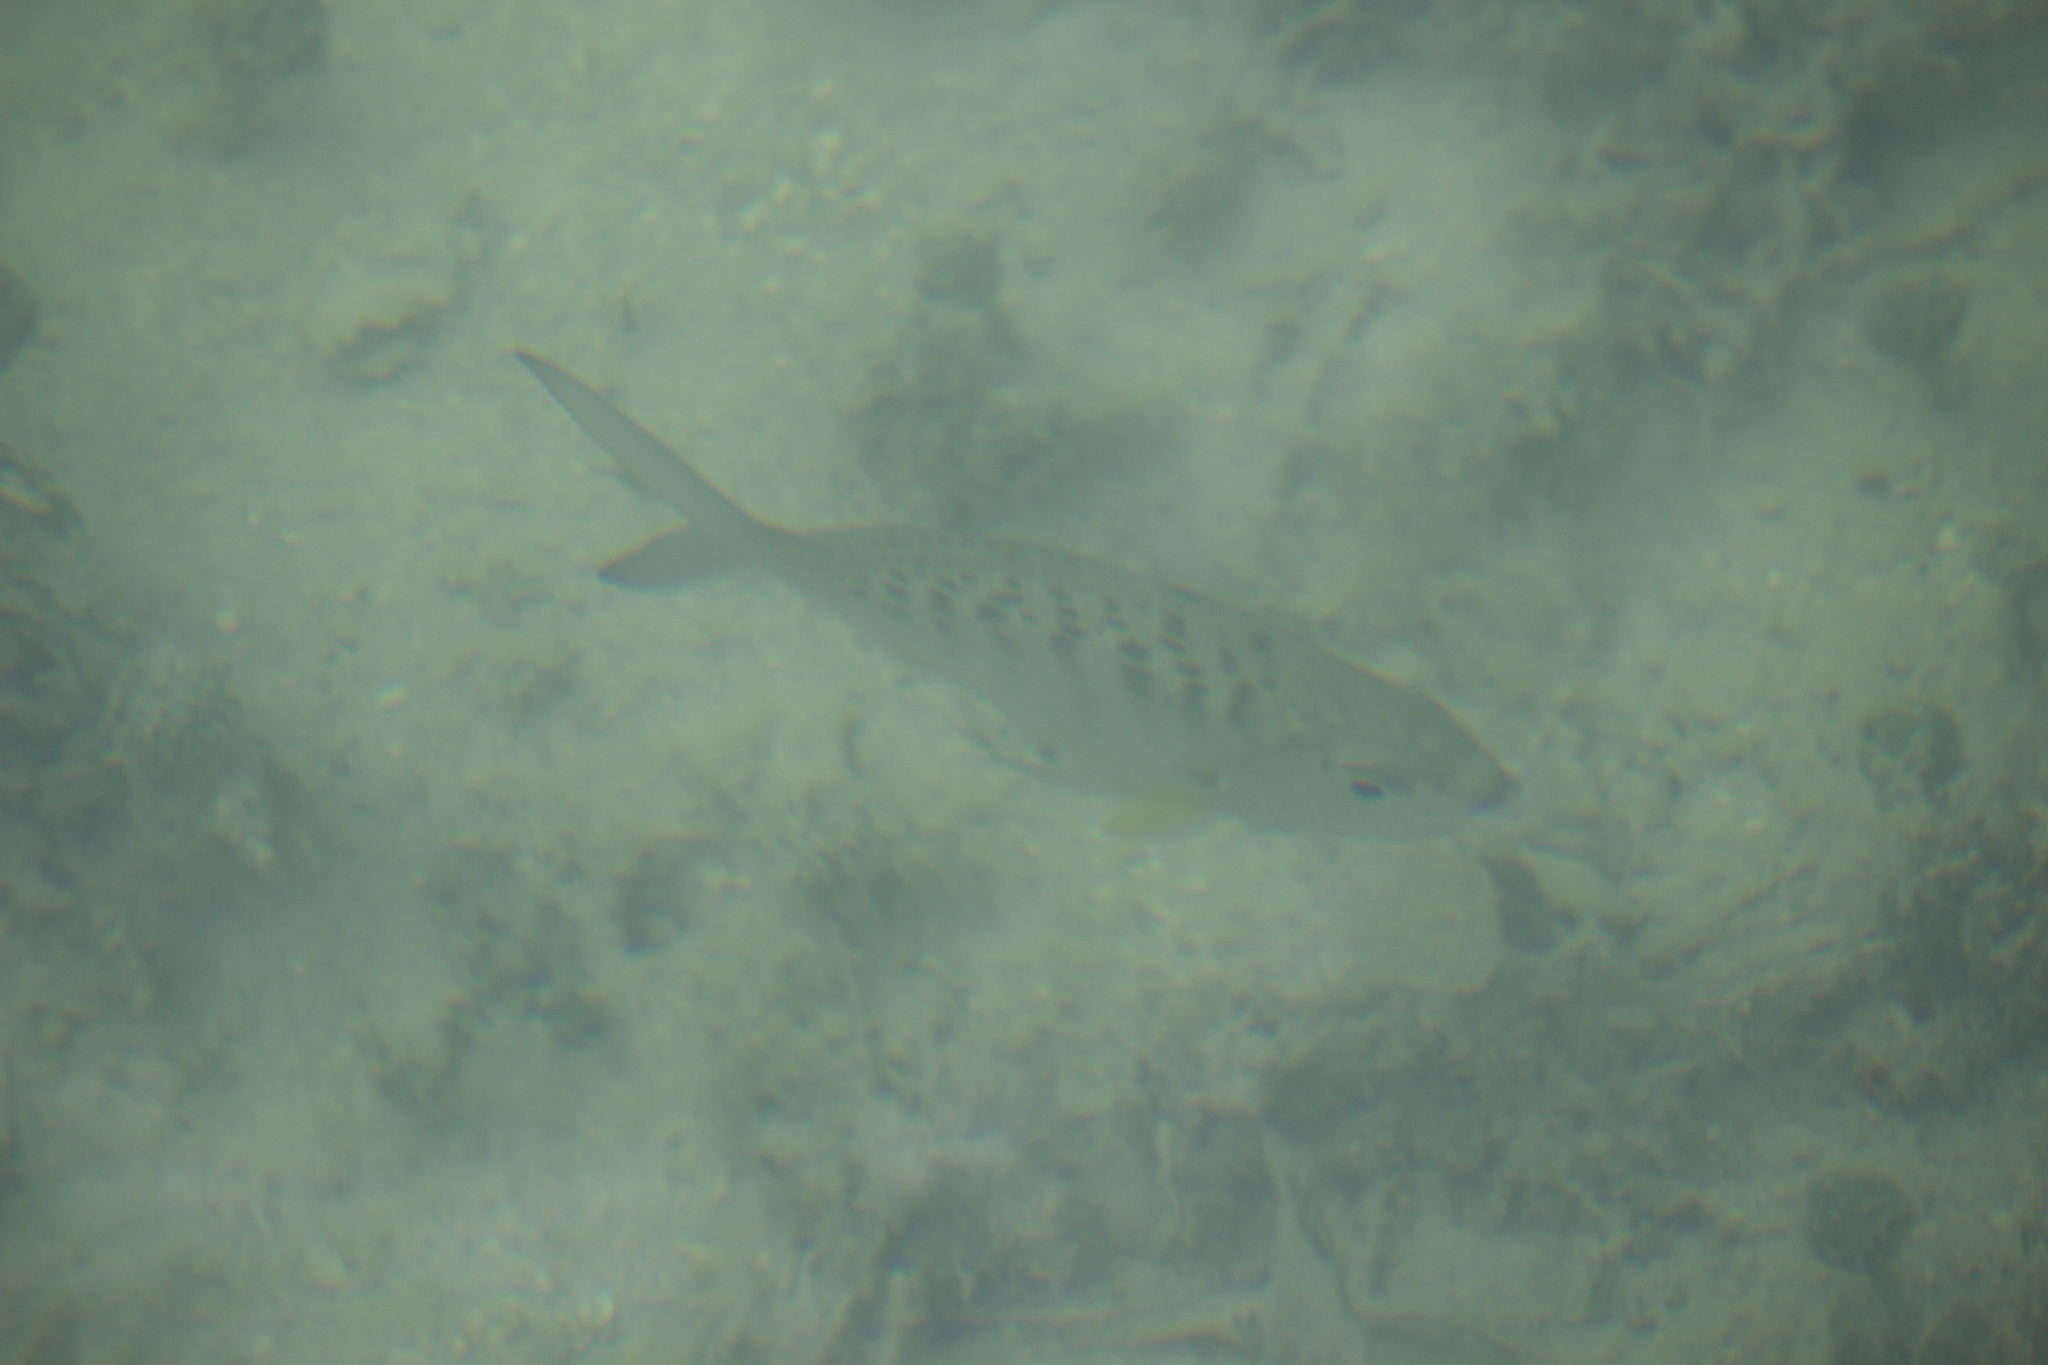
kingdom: Animalia
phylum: Chordata
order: Perciformes
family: Gerreidae
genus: Gerres
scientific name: Gerres cinereus
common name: Hedow
